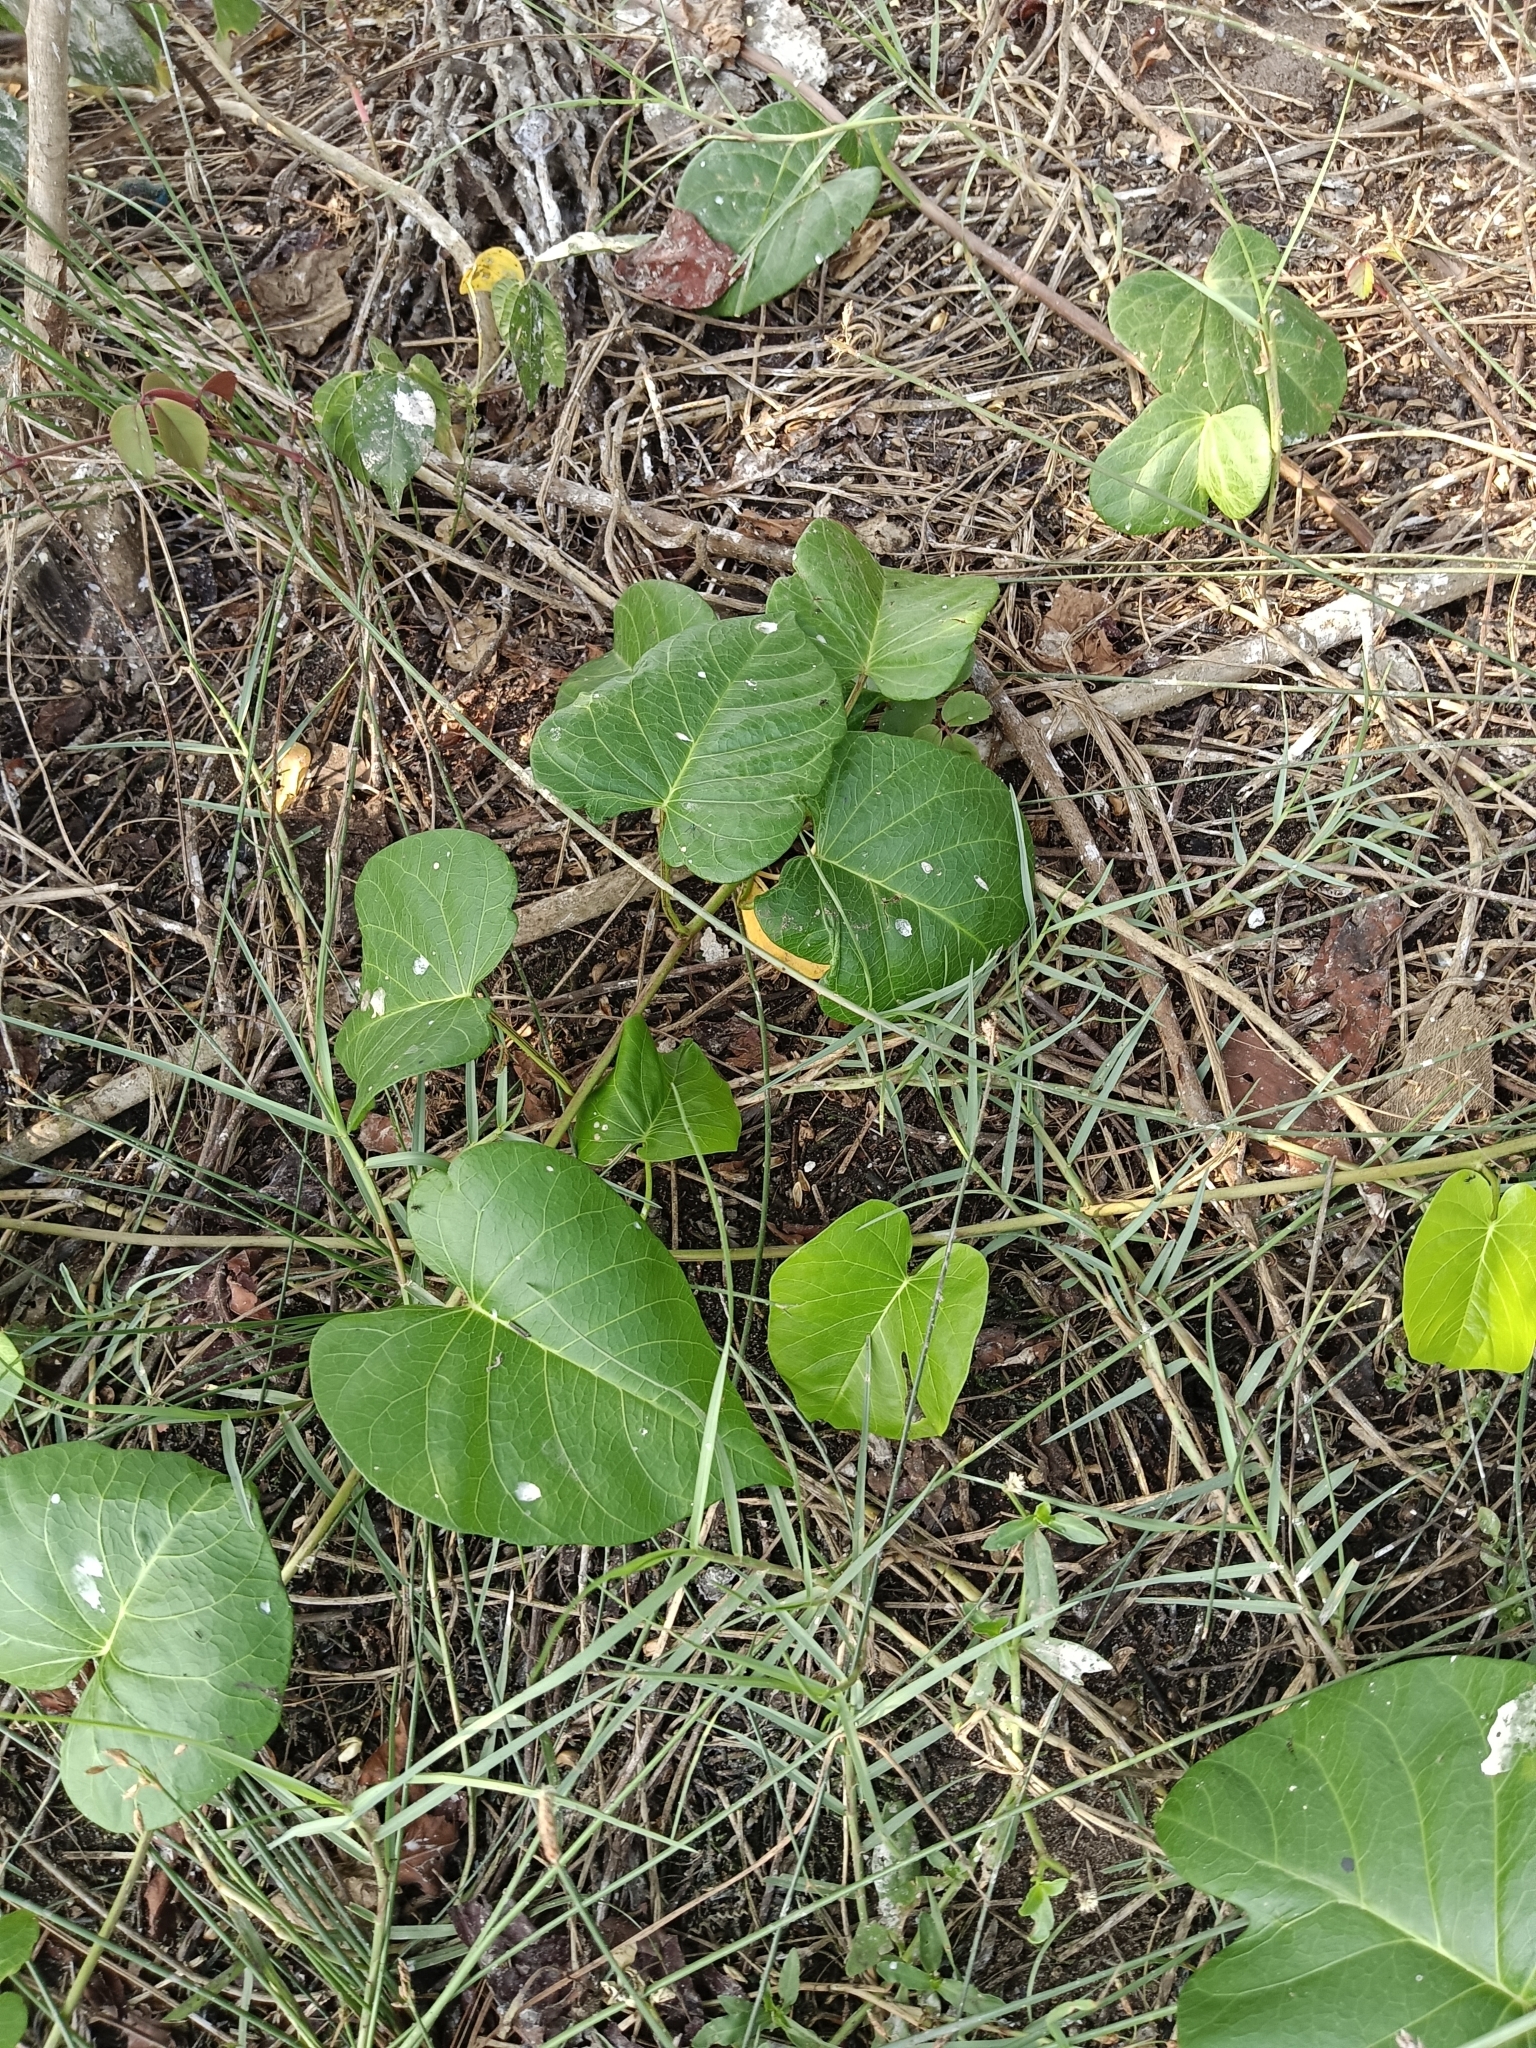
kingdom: Plantae
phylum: Tracheophyta
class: Magnoliopsida
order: Solanales
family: Convolvulaceae
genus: Ipomoea
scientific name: Ipomoea violacea
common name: Beach moonflower
